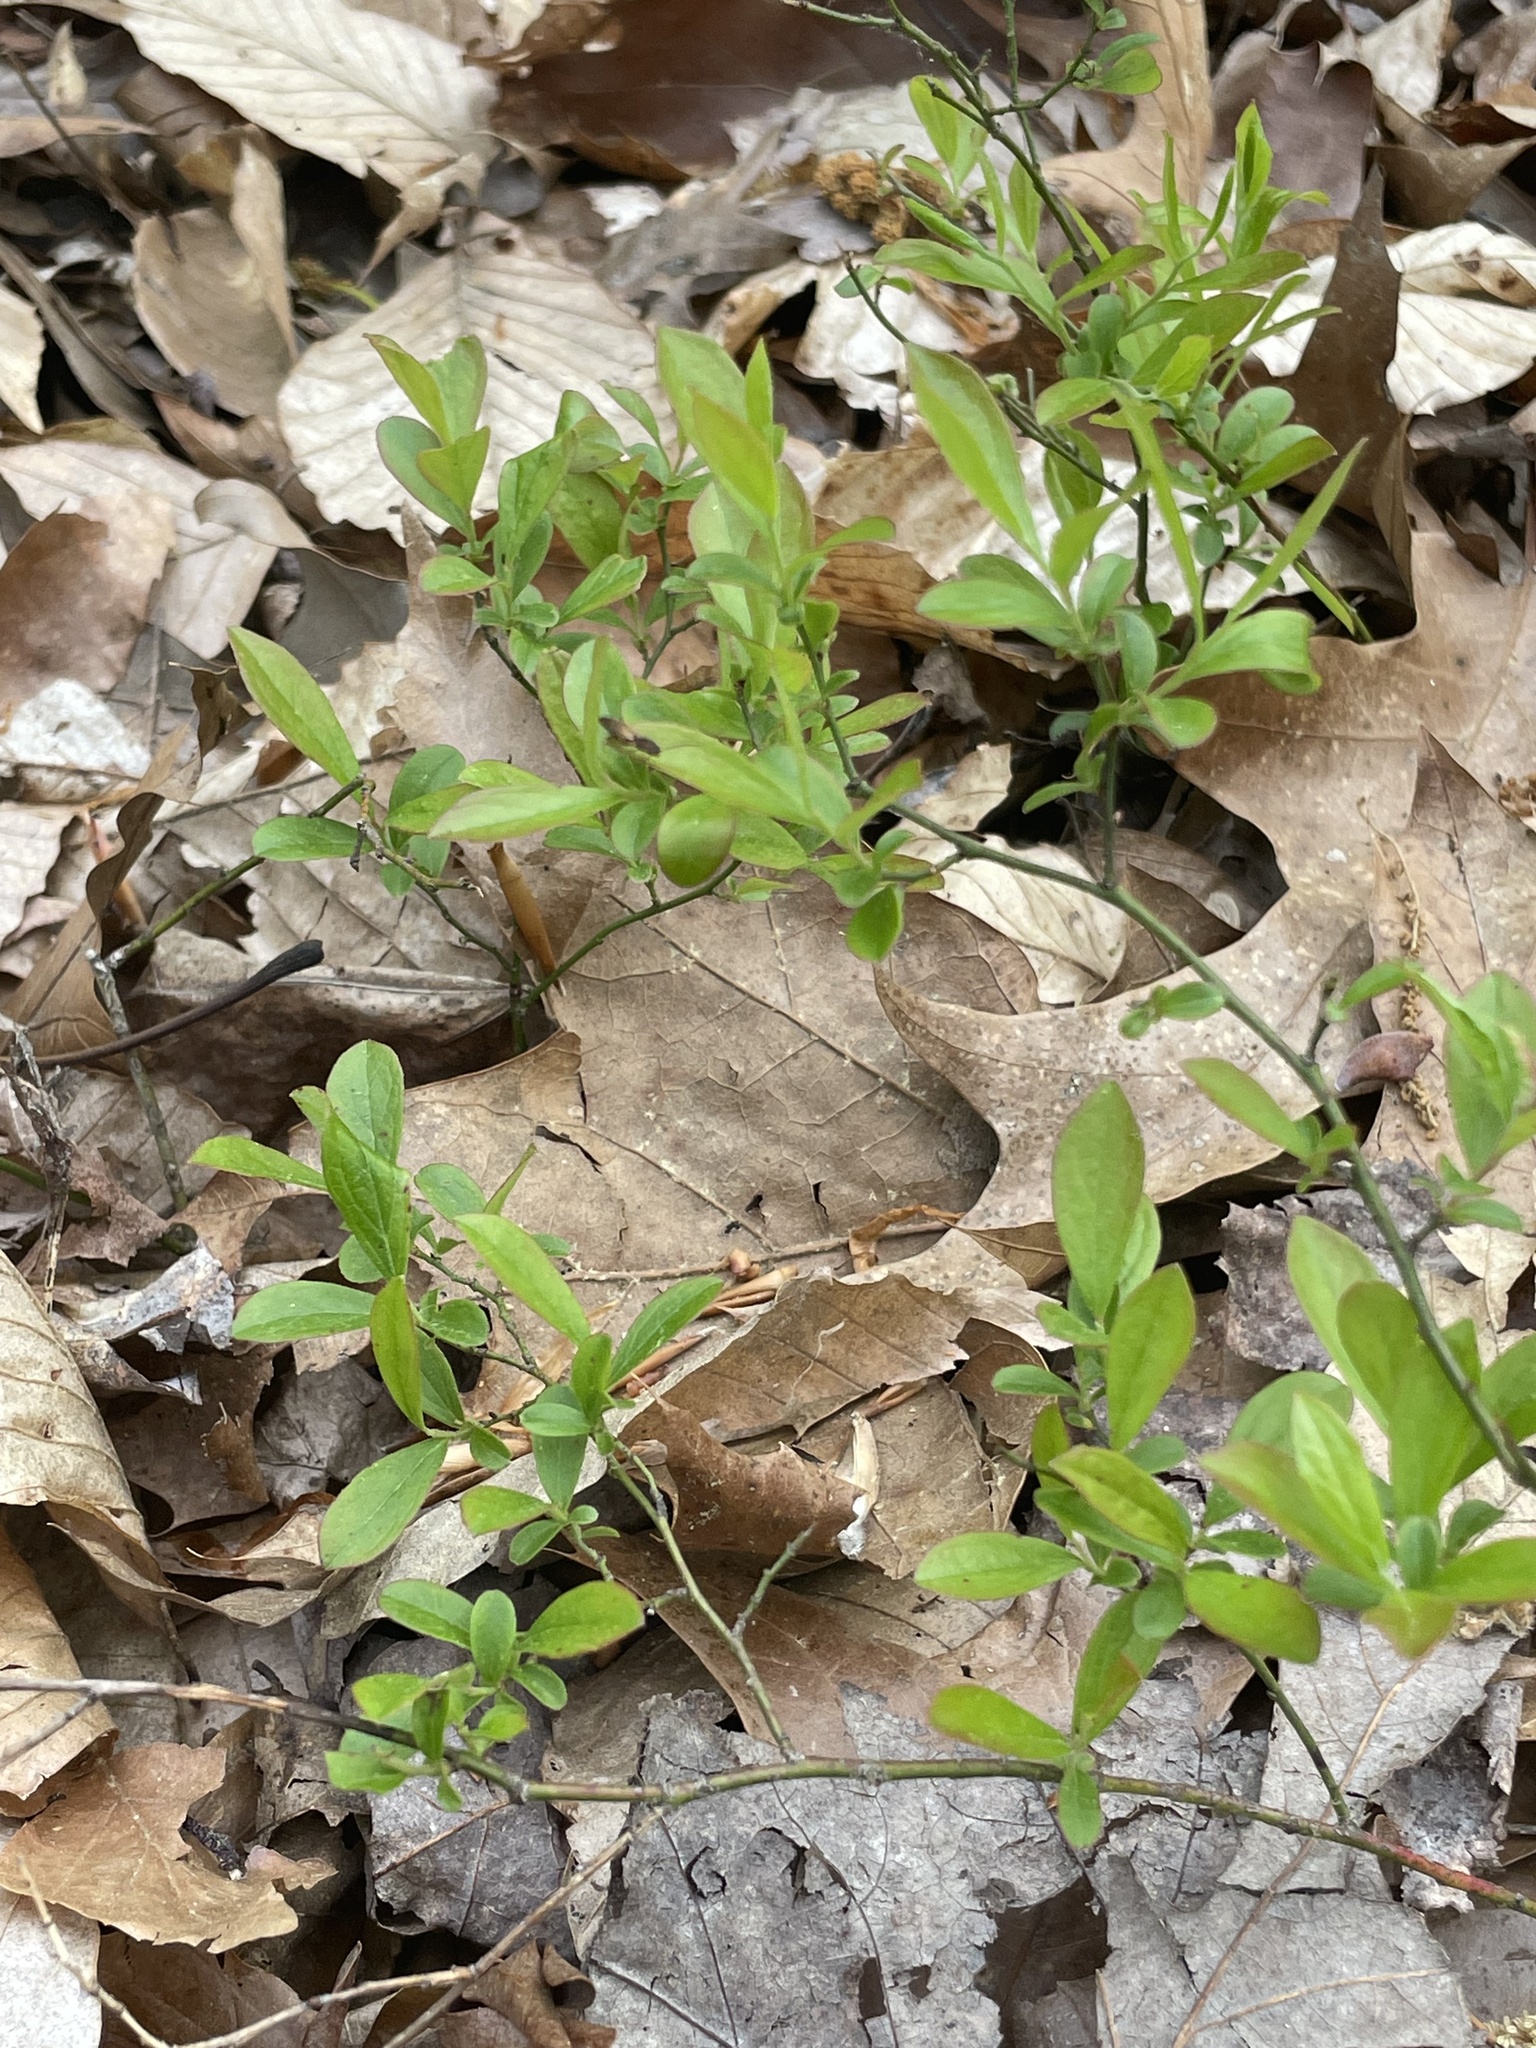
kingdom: Plantae
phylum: Tracheophyta
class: Magnoliopsida
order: Ericales
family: Ericaceae
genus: Vaccinium
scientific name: Vaccinium pallidum
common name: Blue ridge blueberry
